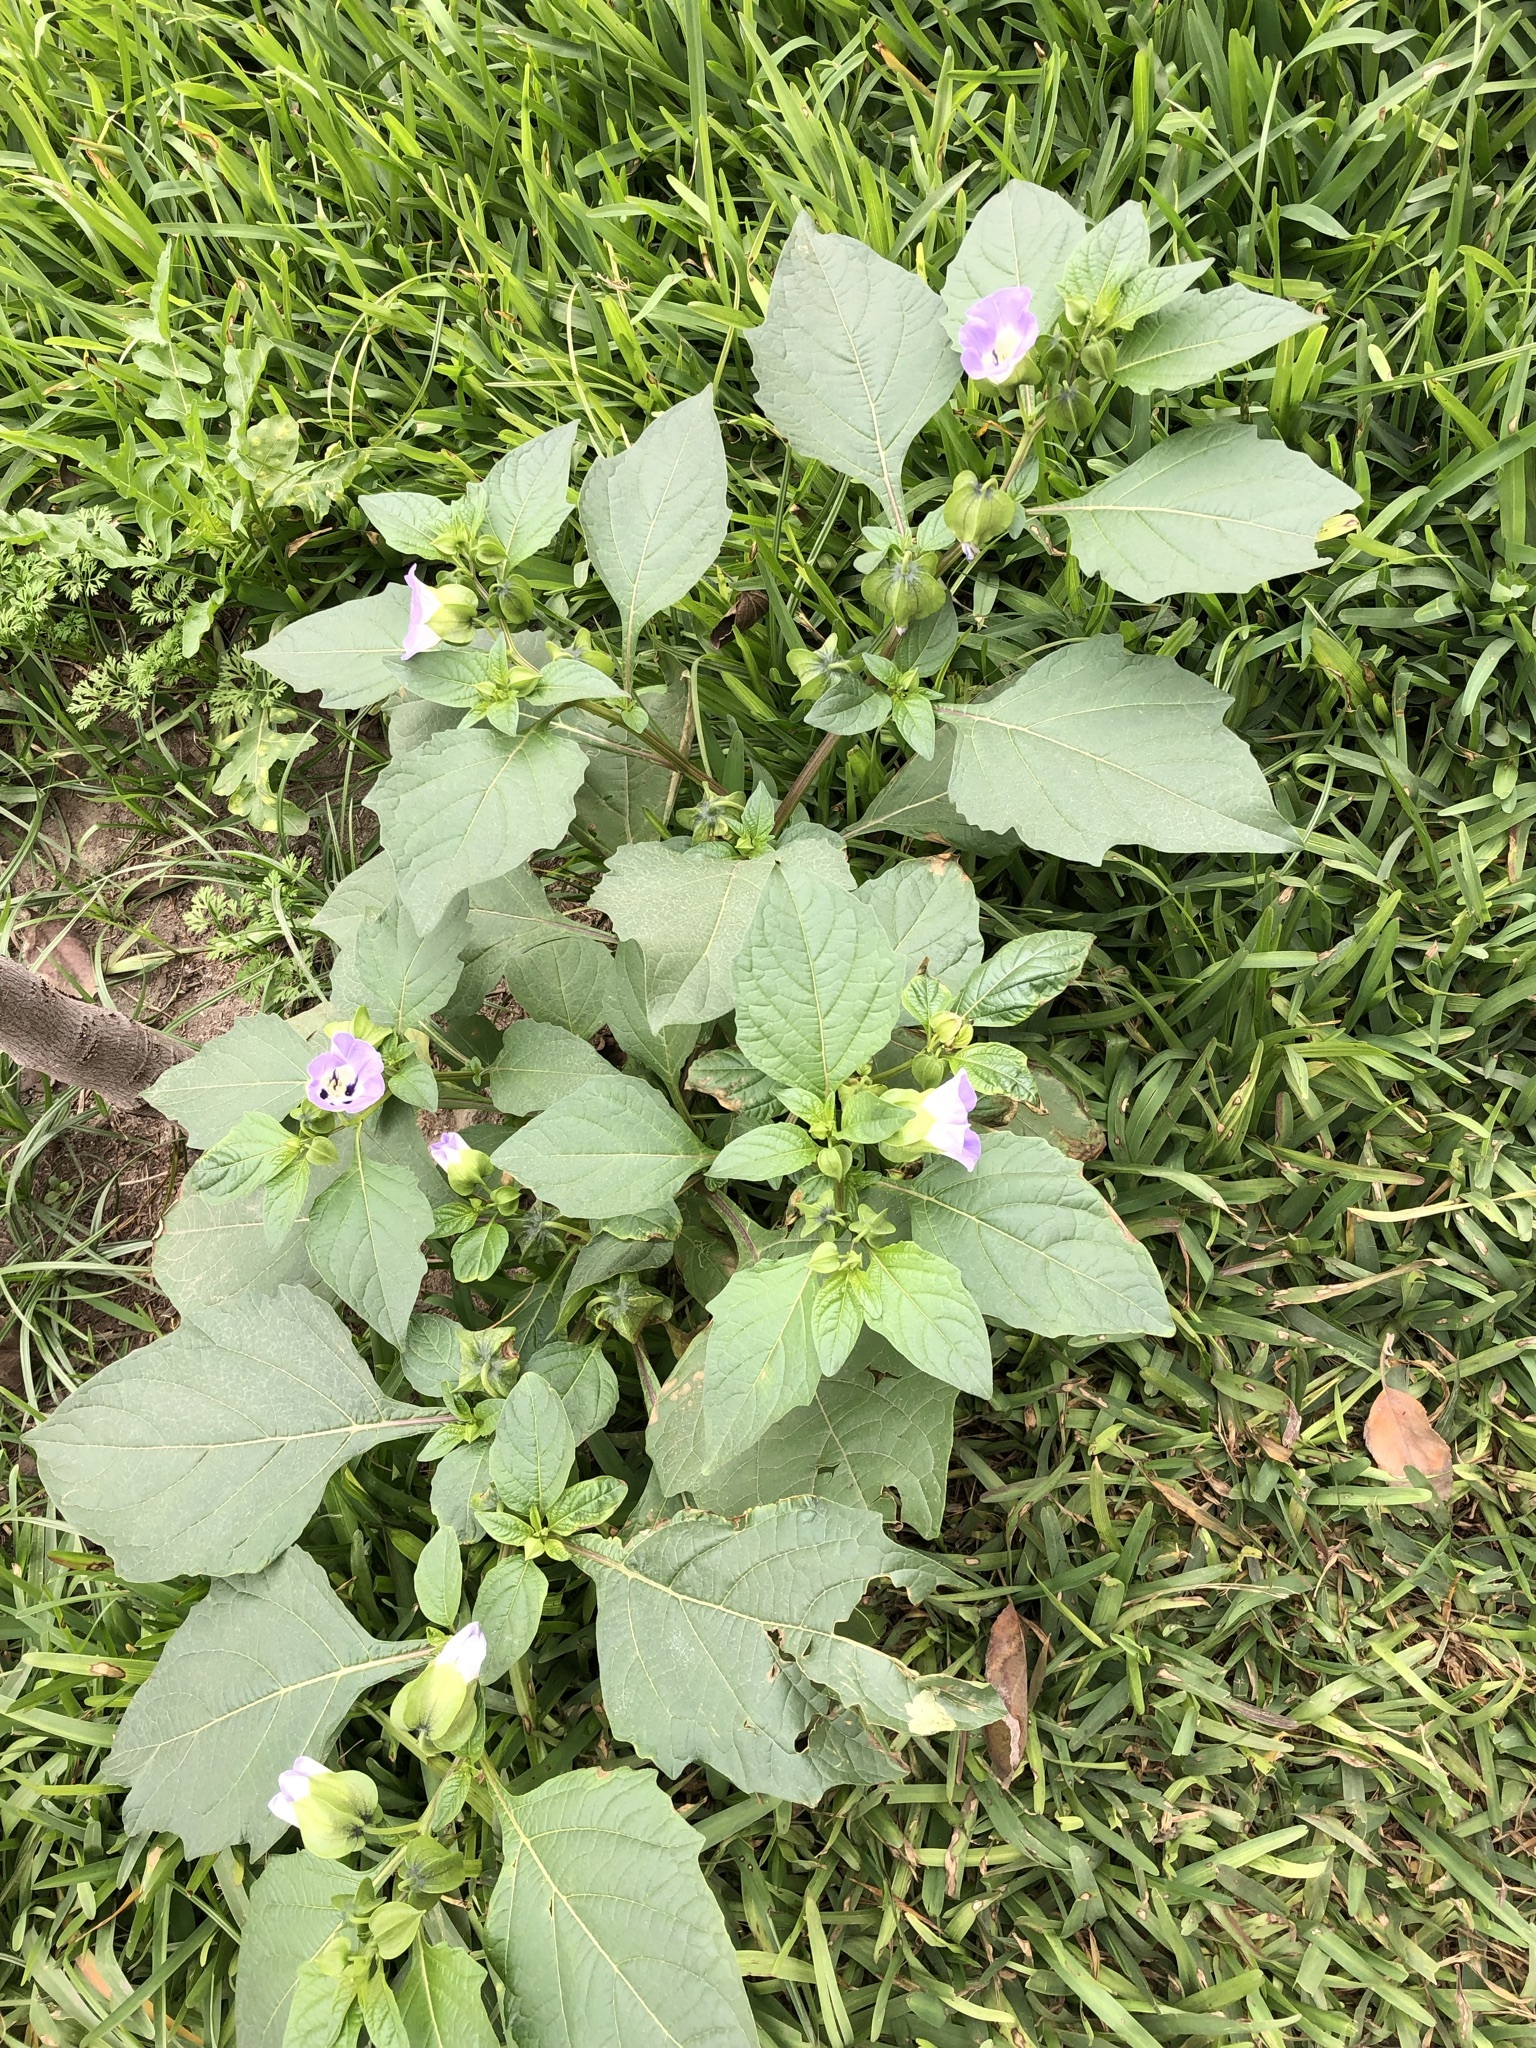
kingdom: Plantae
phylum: Tracheophyta
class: Magnoliopsida
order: Solanales
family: Solanaceae
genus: Nicandra
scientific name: Nicandra physalodes
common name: Apple-of-peru
